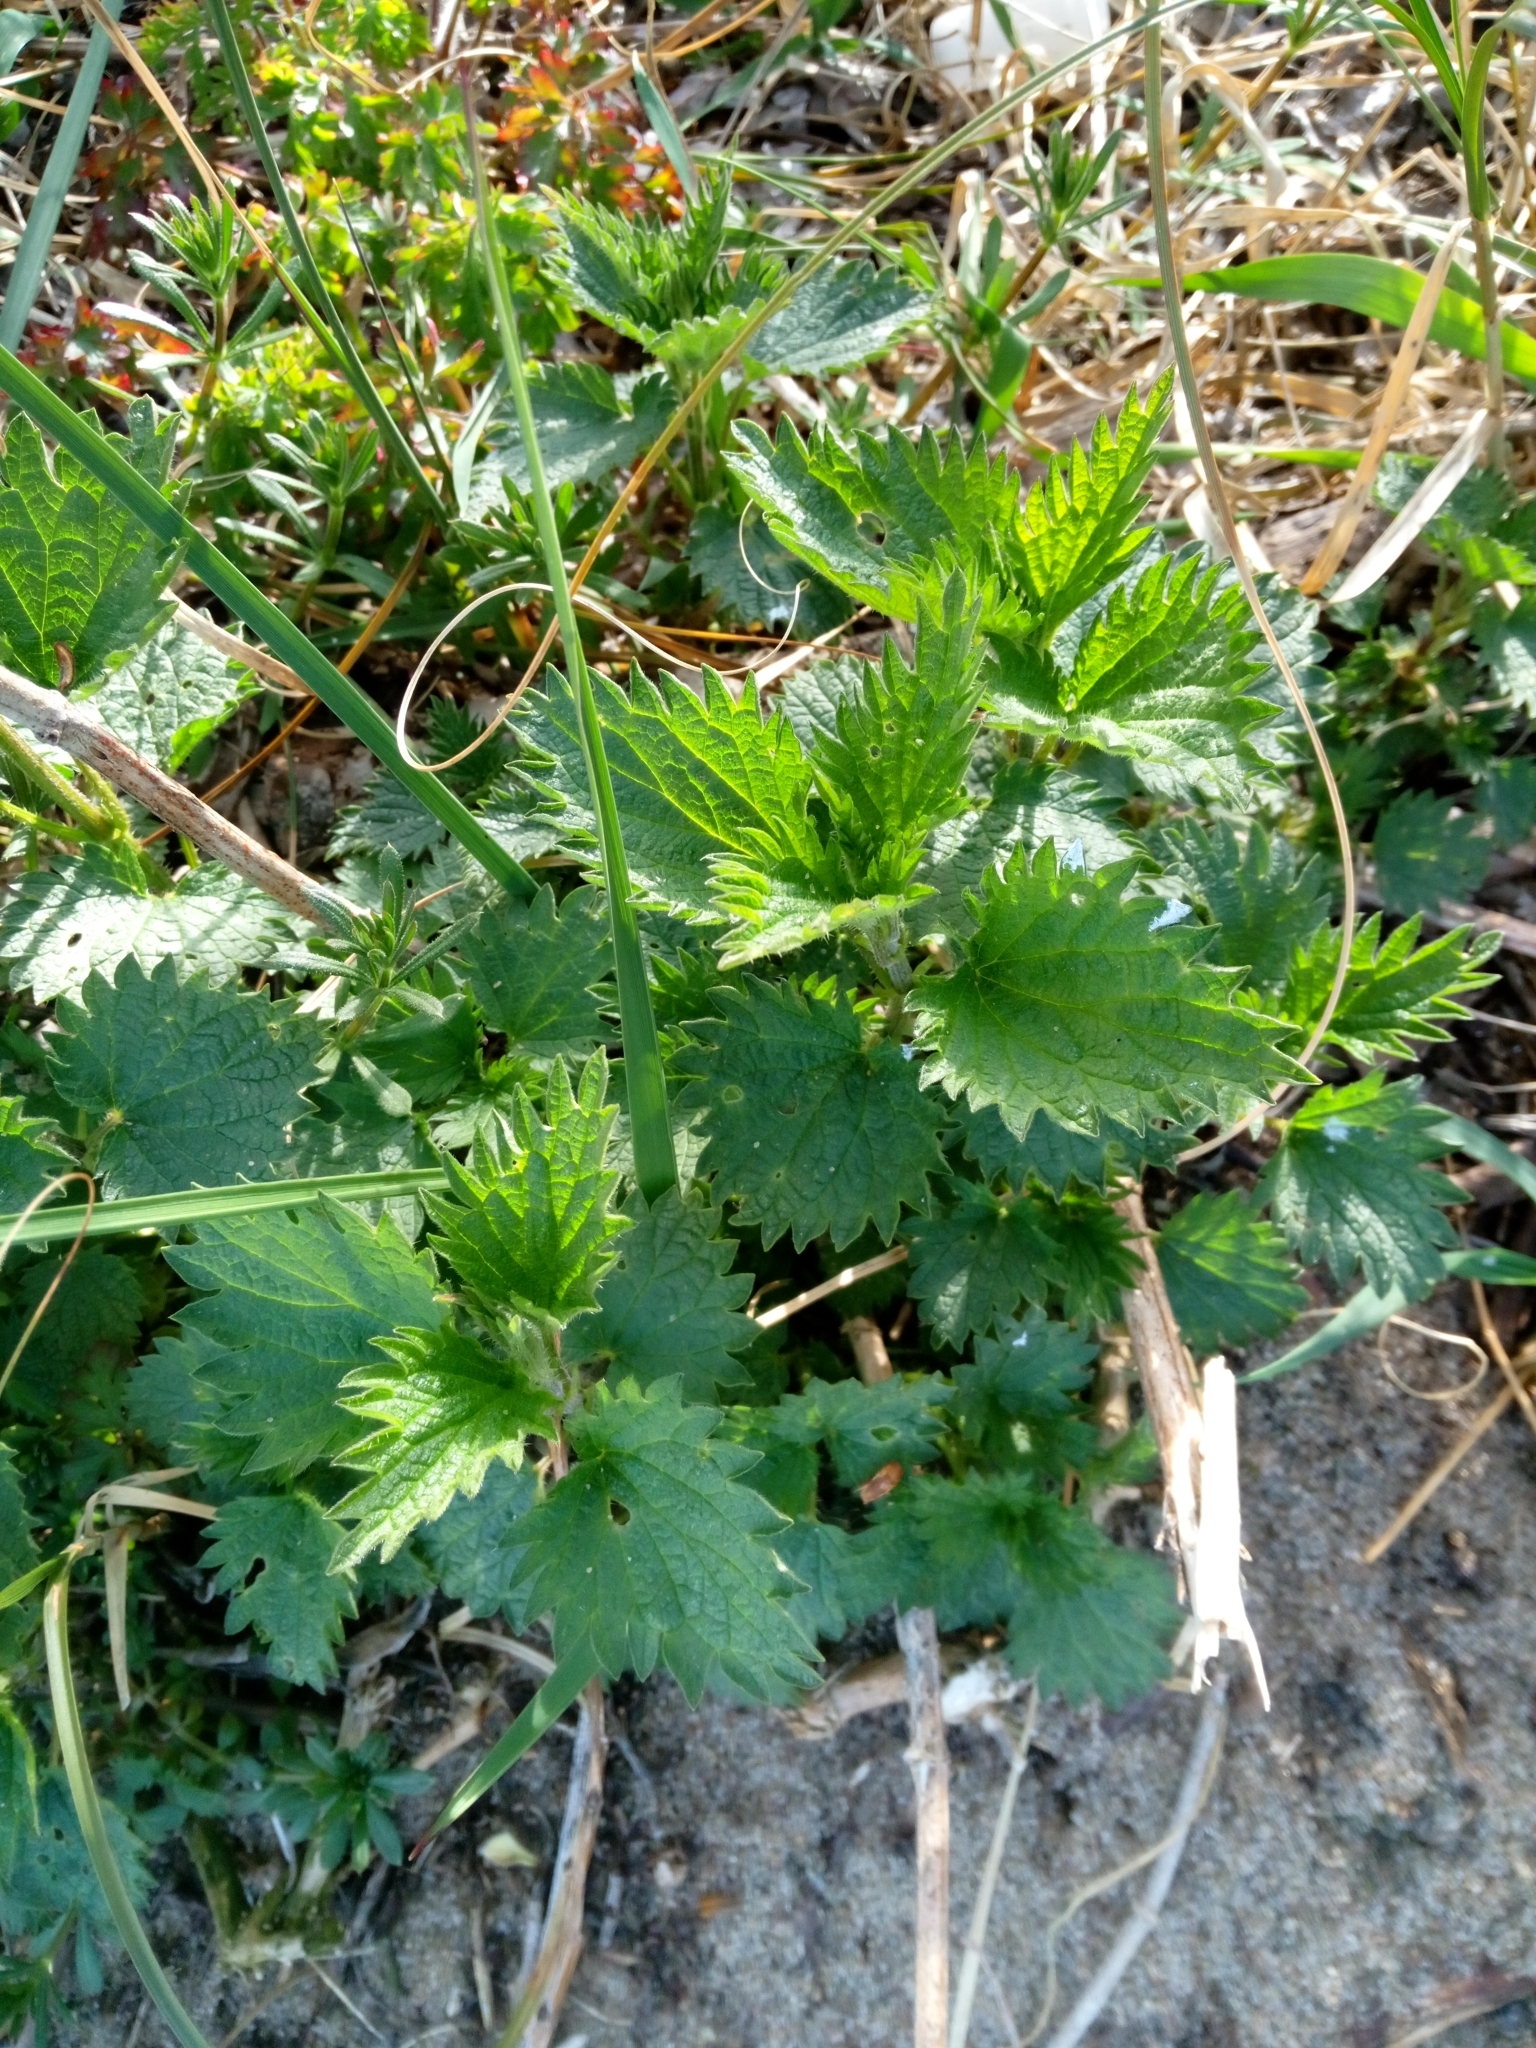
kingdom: Plantae
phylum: Tracheophyta
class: Magnoliopsida
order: Rosales
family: Urticaceae
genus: Urtica
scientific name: Urtica dioica
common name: Common nettle
